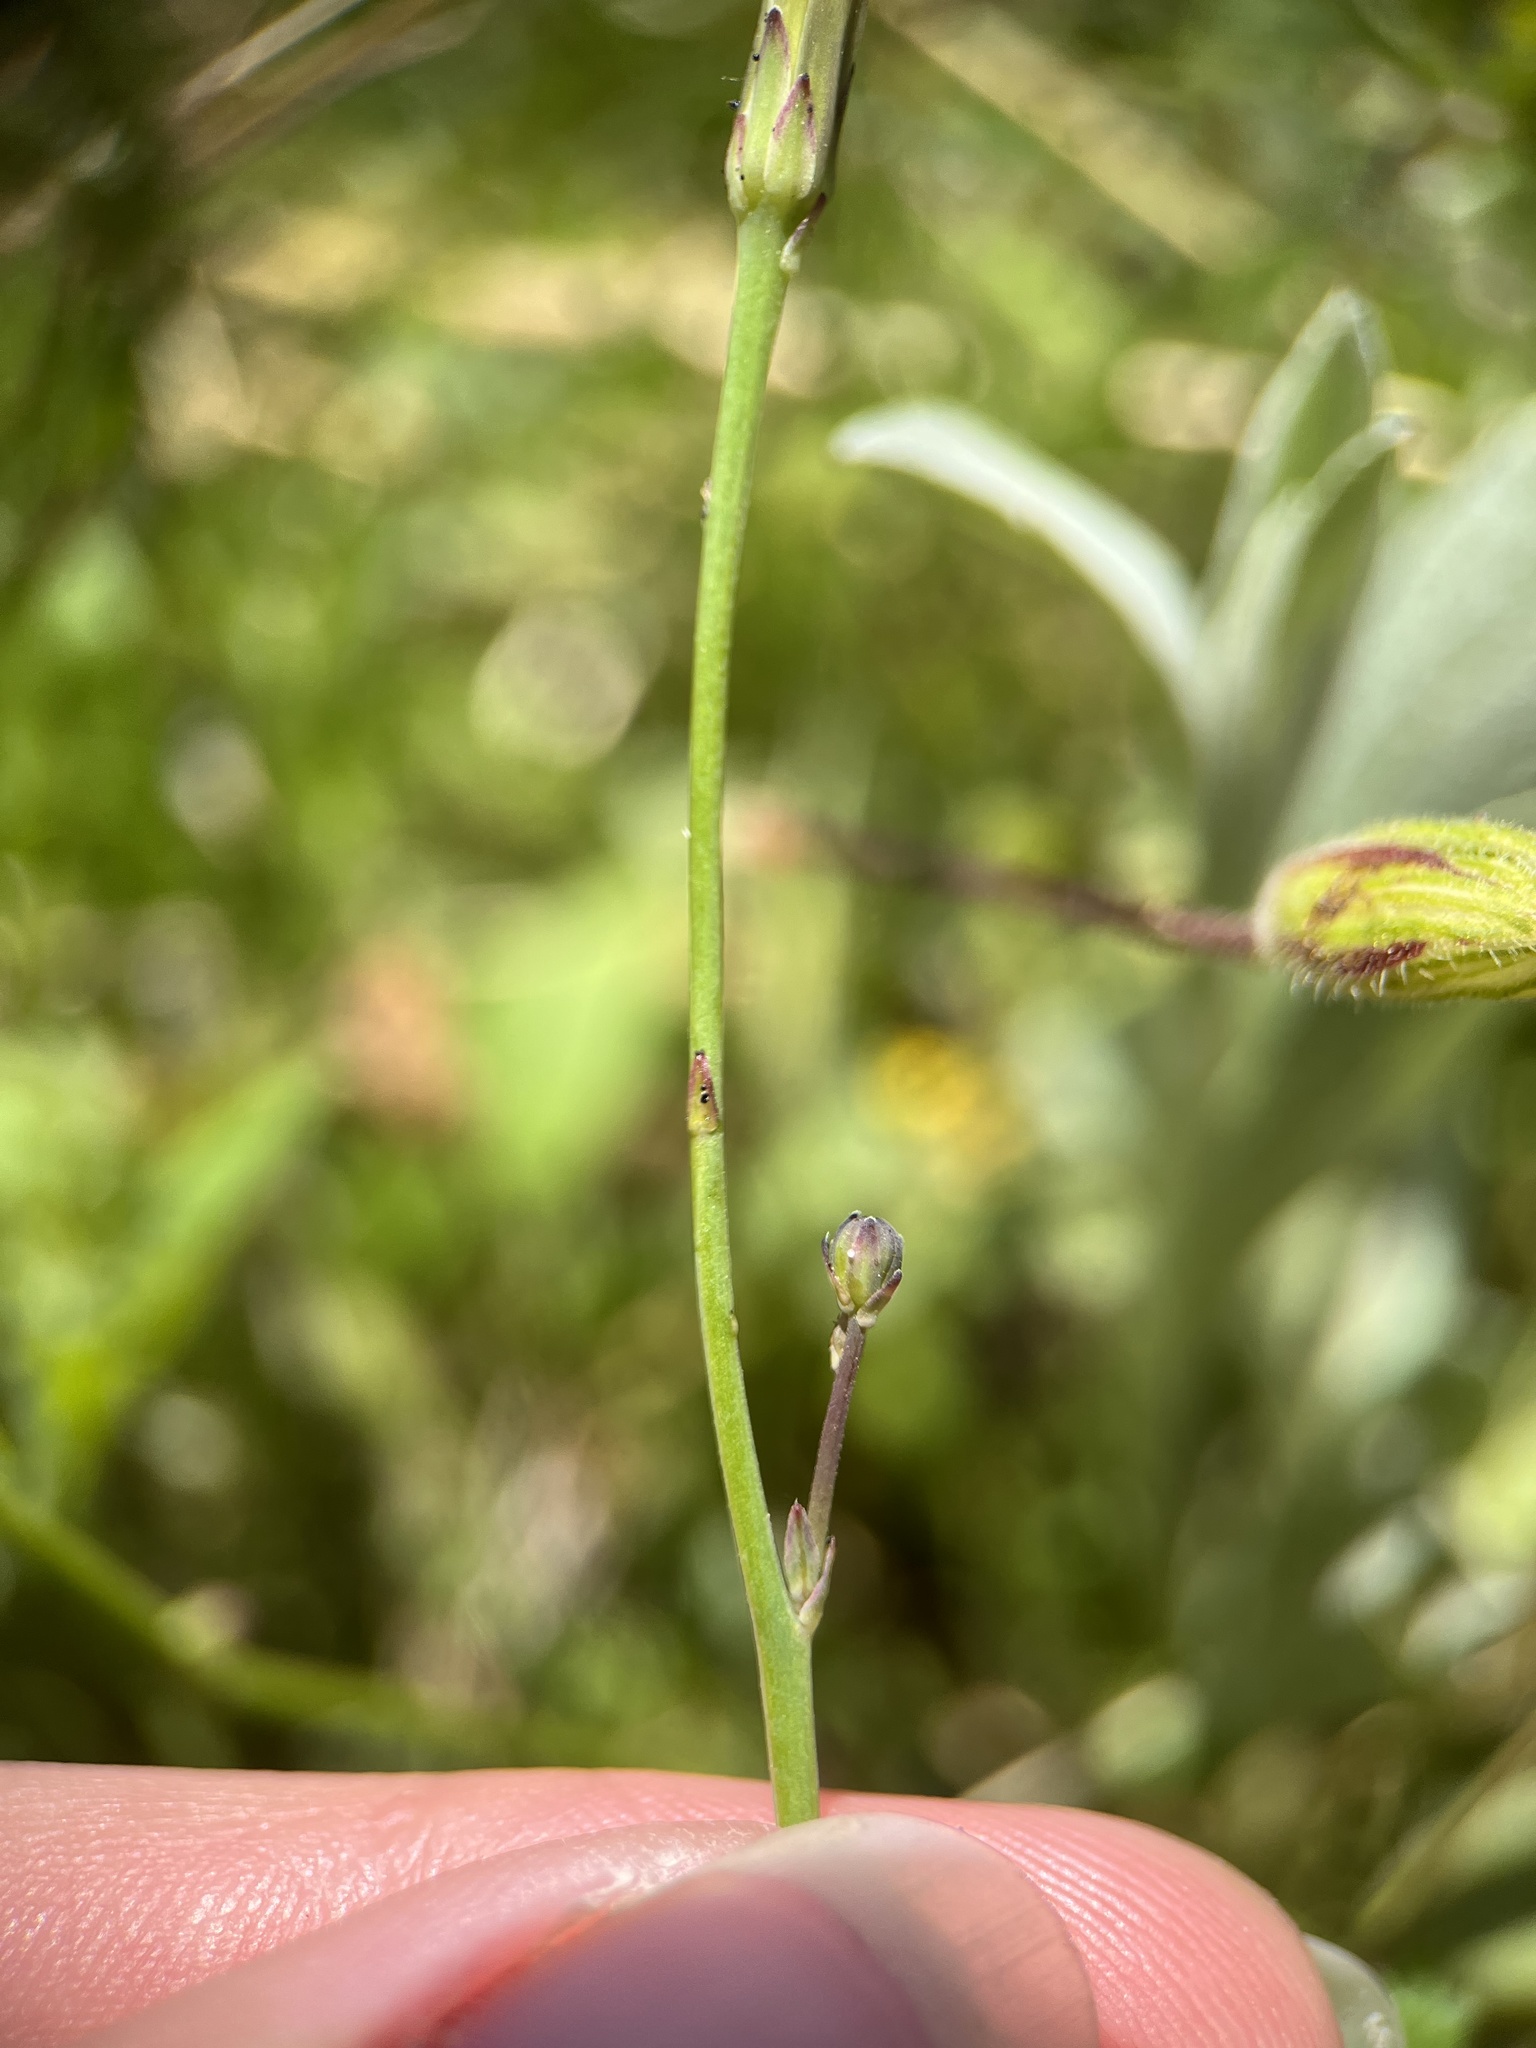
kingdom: Plantae
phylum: Tracheophyta
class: Magnoliopsida
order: Asterales
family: Asteraceae
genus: Hypochaeris
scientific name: Hypochaeris glabra
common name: Smooth catsear
